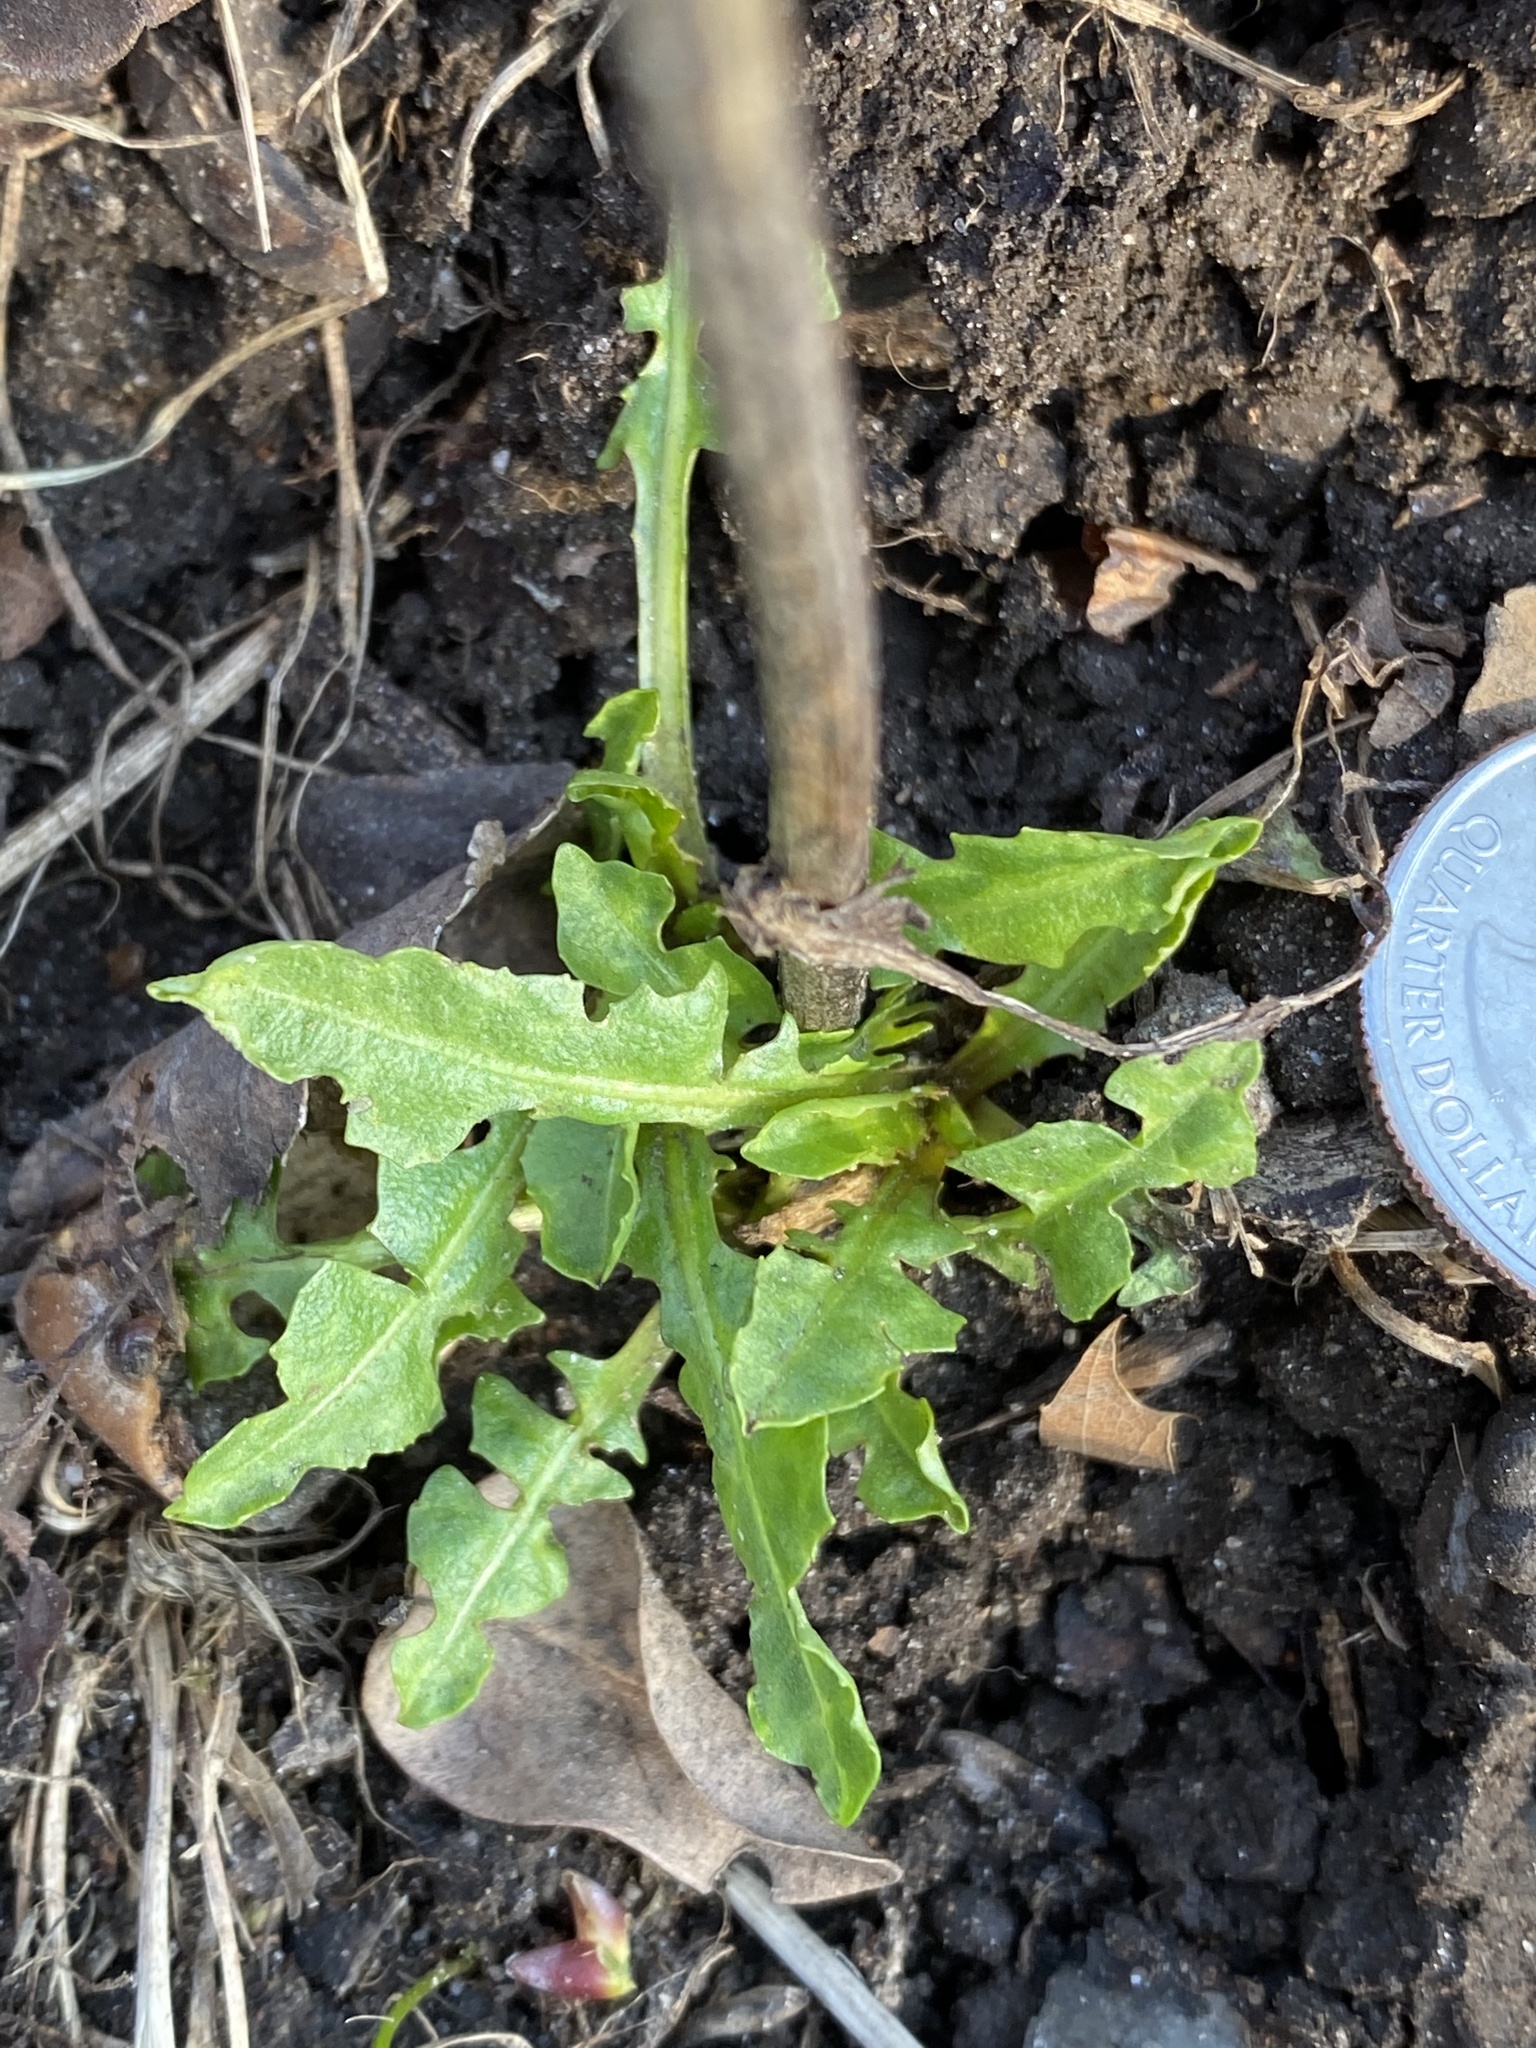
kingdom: Plantae
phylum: Tracheophyta
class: Magnoliopsida
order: Asterales
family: Asteraceae
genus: Cichorium
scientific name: Cichorium intybus
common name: Chicory
